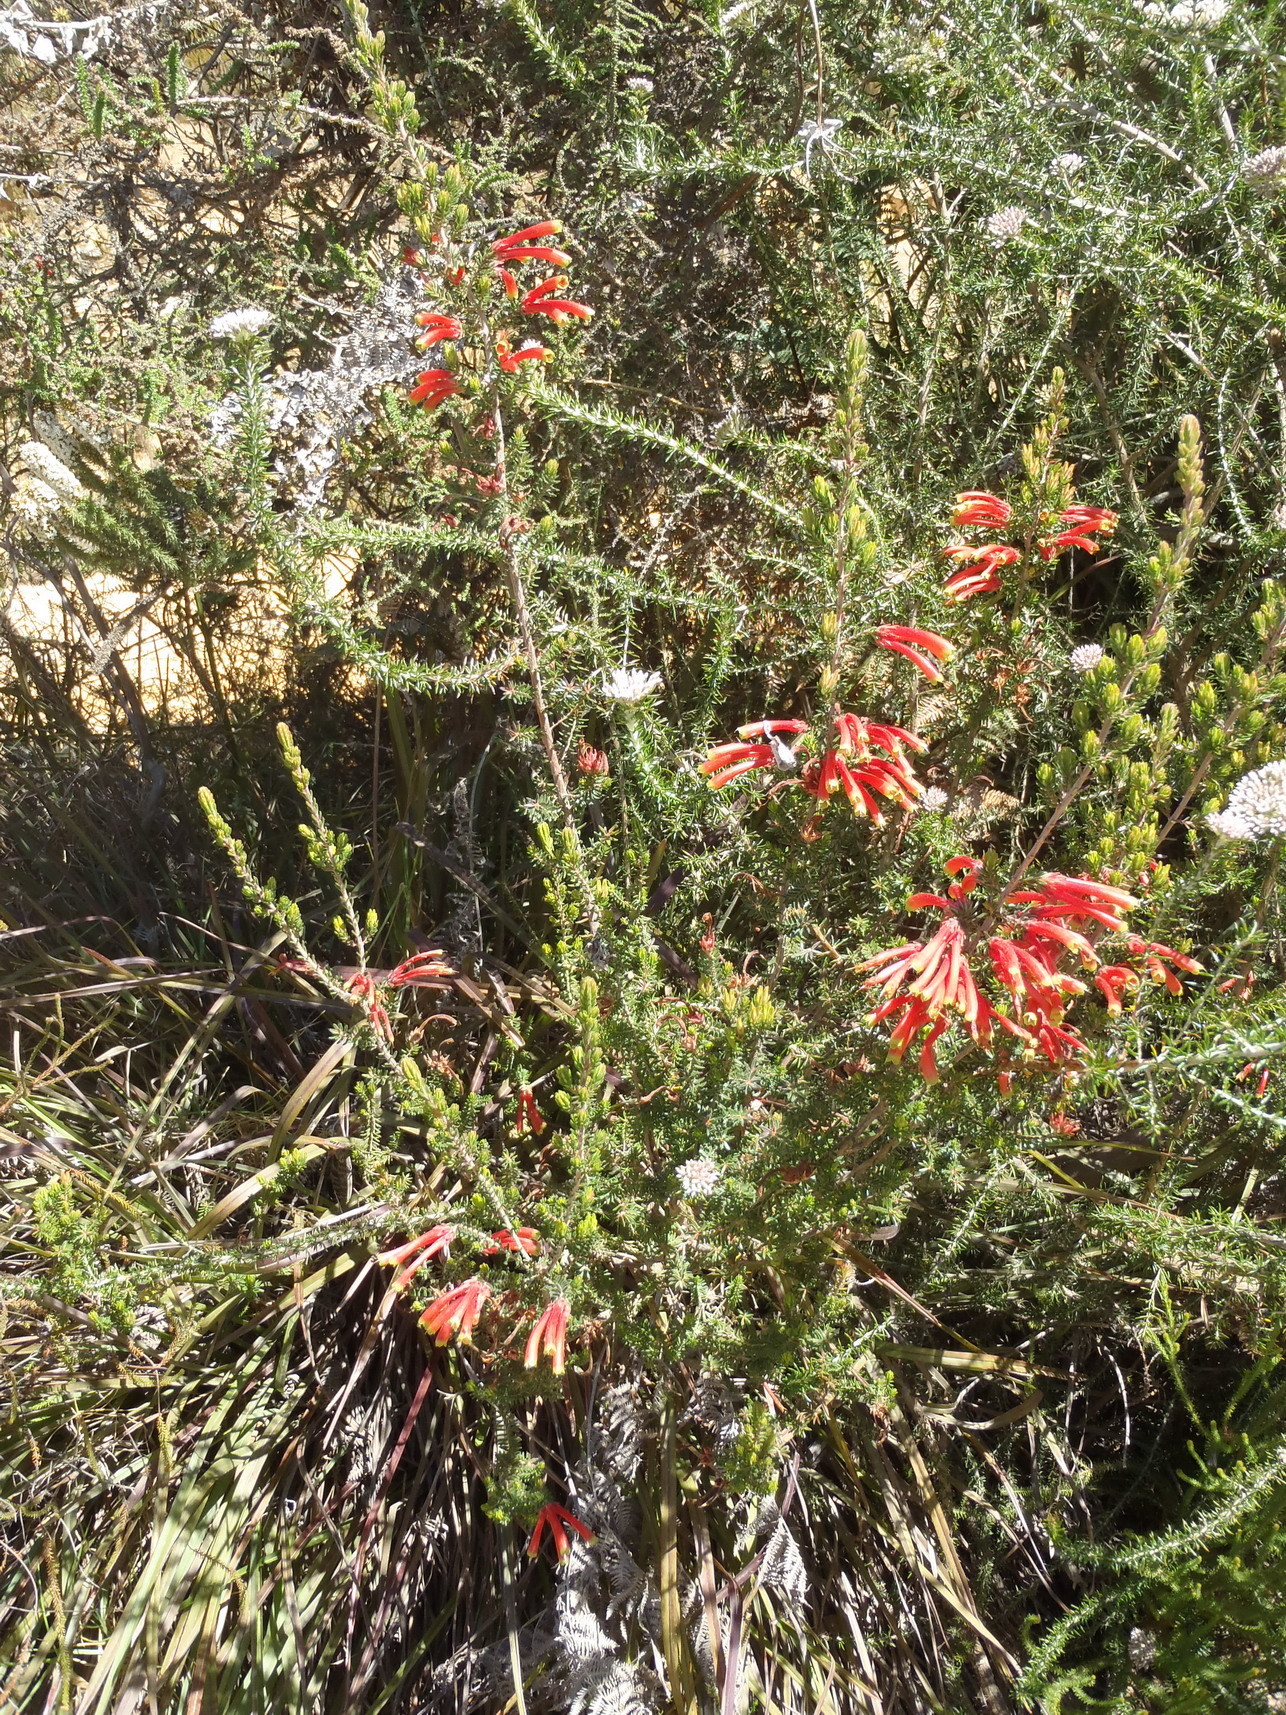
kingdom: Plantae
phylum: Tracheophyta
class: Magnoliopsida
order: Ericales
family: Ericaceae
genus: Erica
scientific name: Erica discolor
